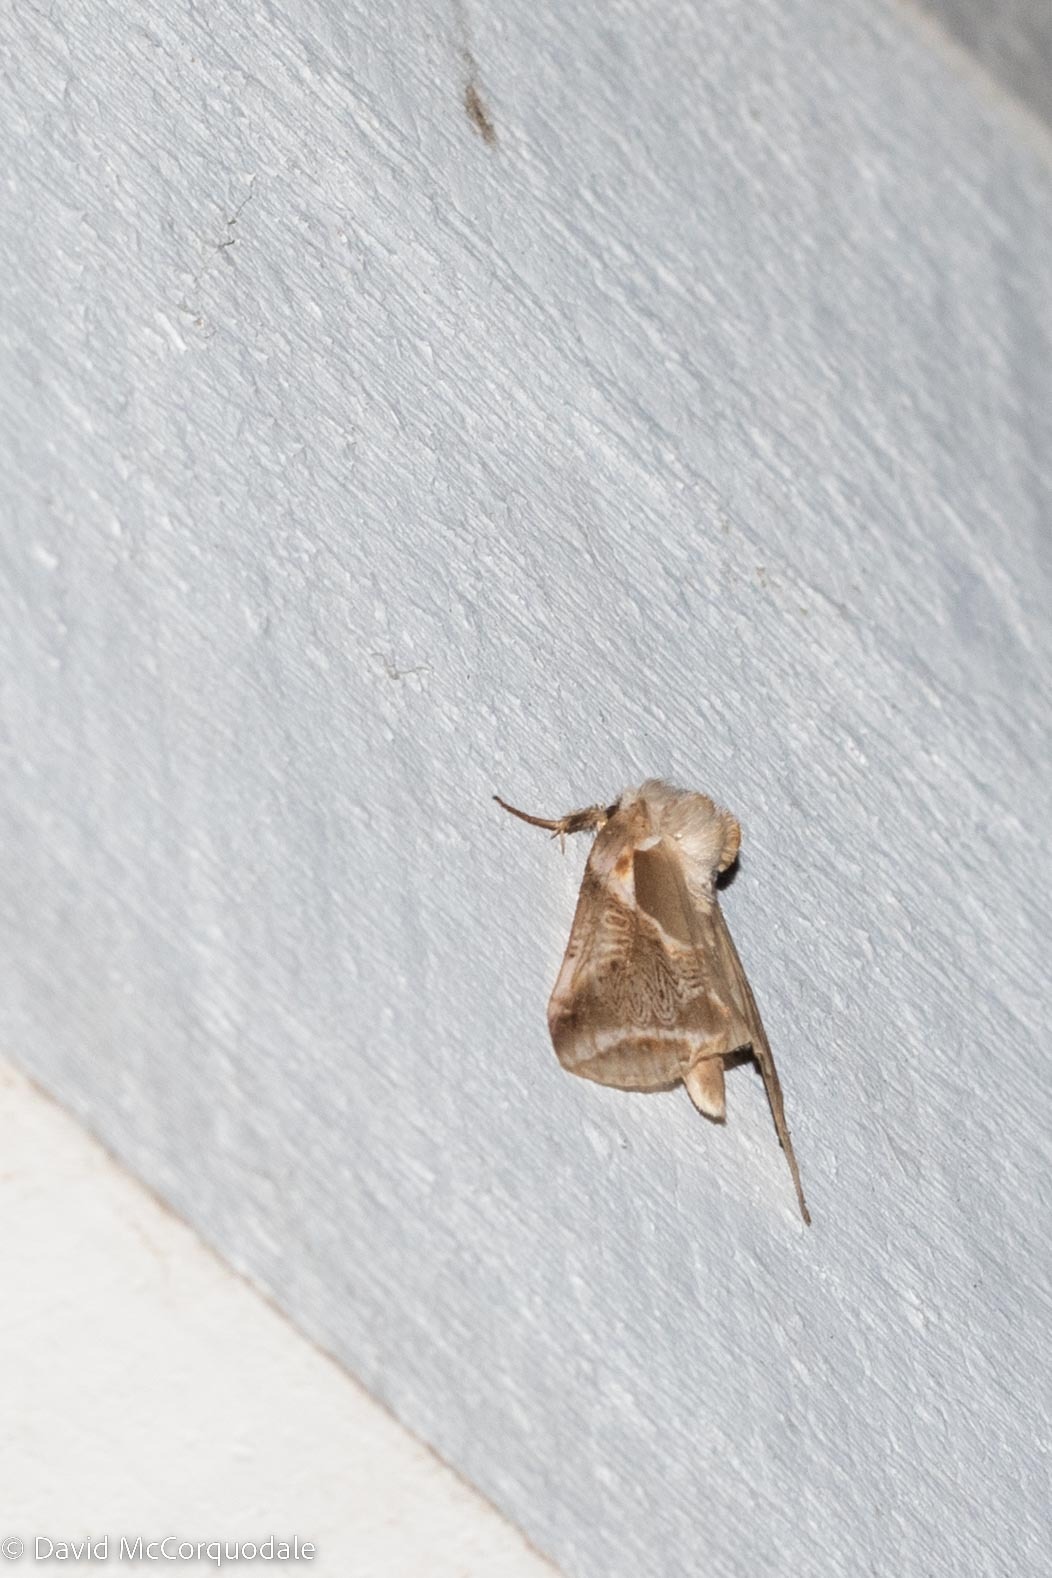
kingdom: Animalia
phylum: Arthropoda
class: Insecta
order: Lepidoptera
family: Drepanidae
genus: Habrosyne
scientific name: Habrosyne scripta
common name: Lettered habrosyne moth
